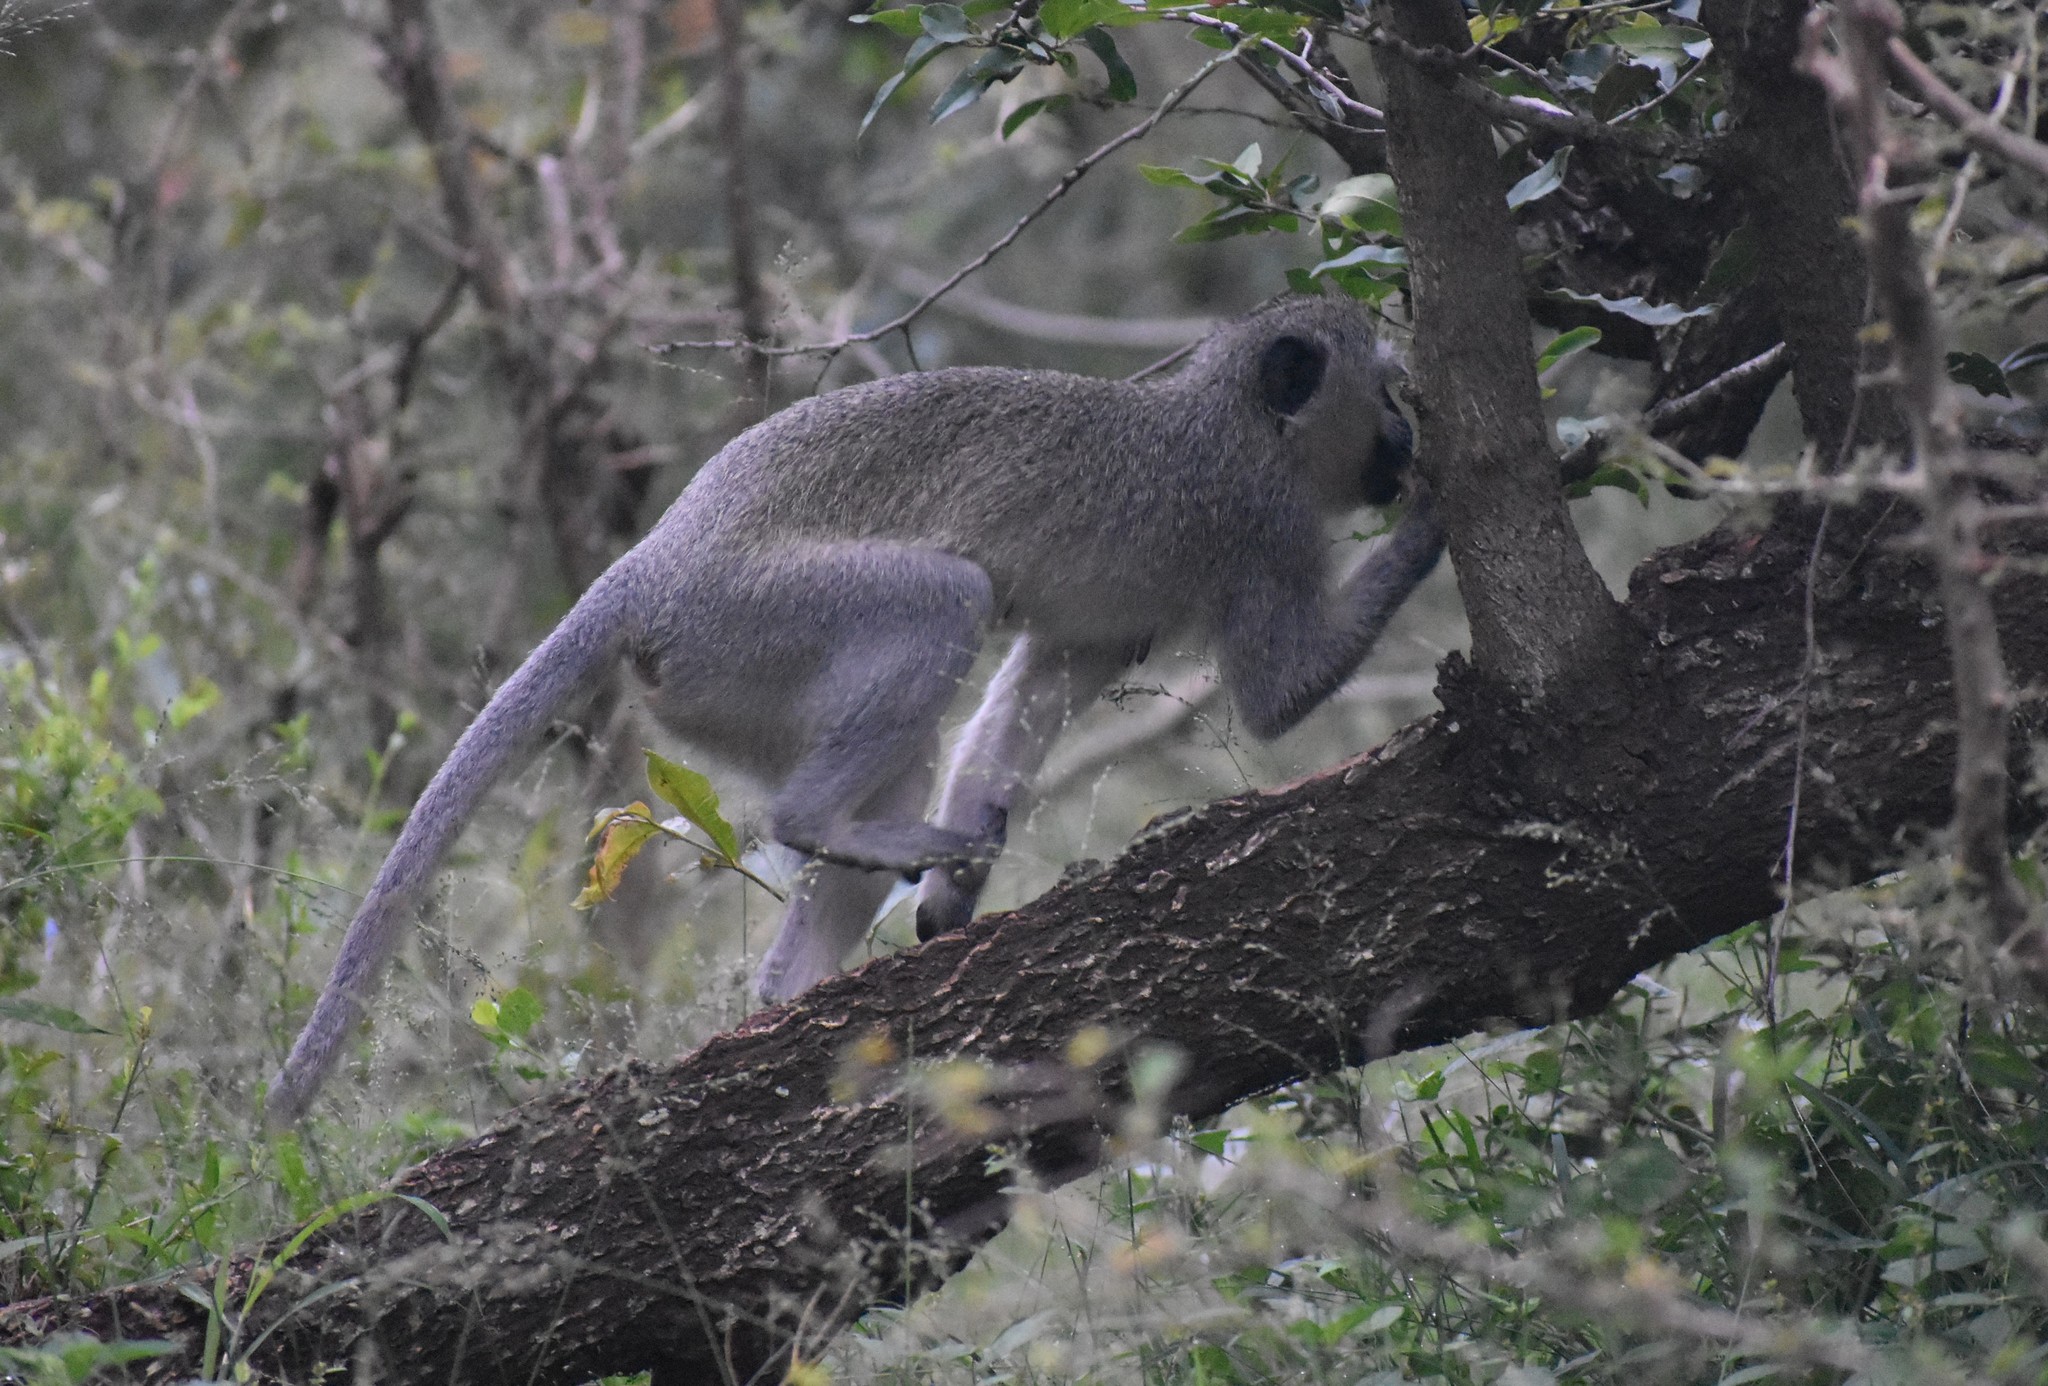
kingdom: Animalia
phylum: Chordata
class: Mammalia
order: Primates
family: Cercopithecidae
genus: Chlorocebus
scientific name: Chlorocebus pygerythrus
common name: Vervet monkey
